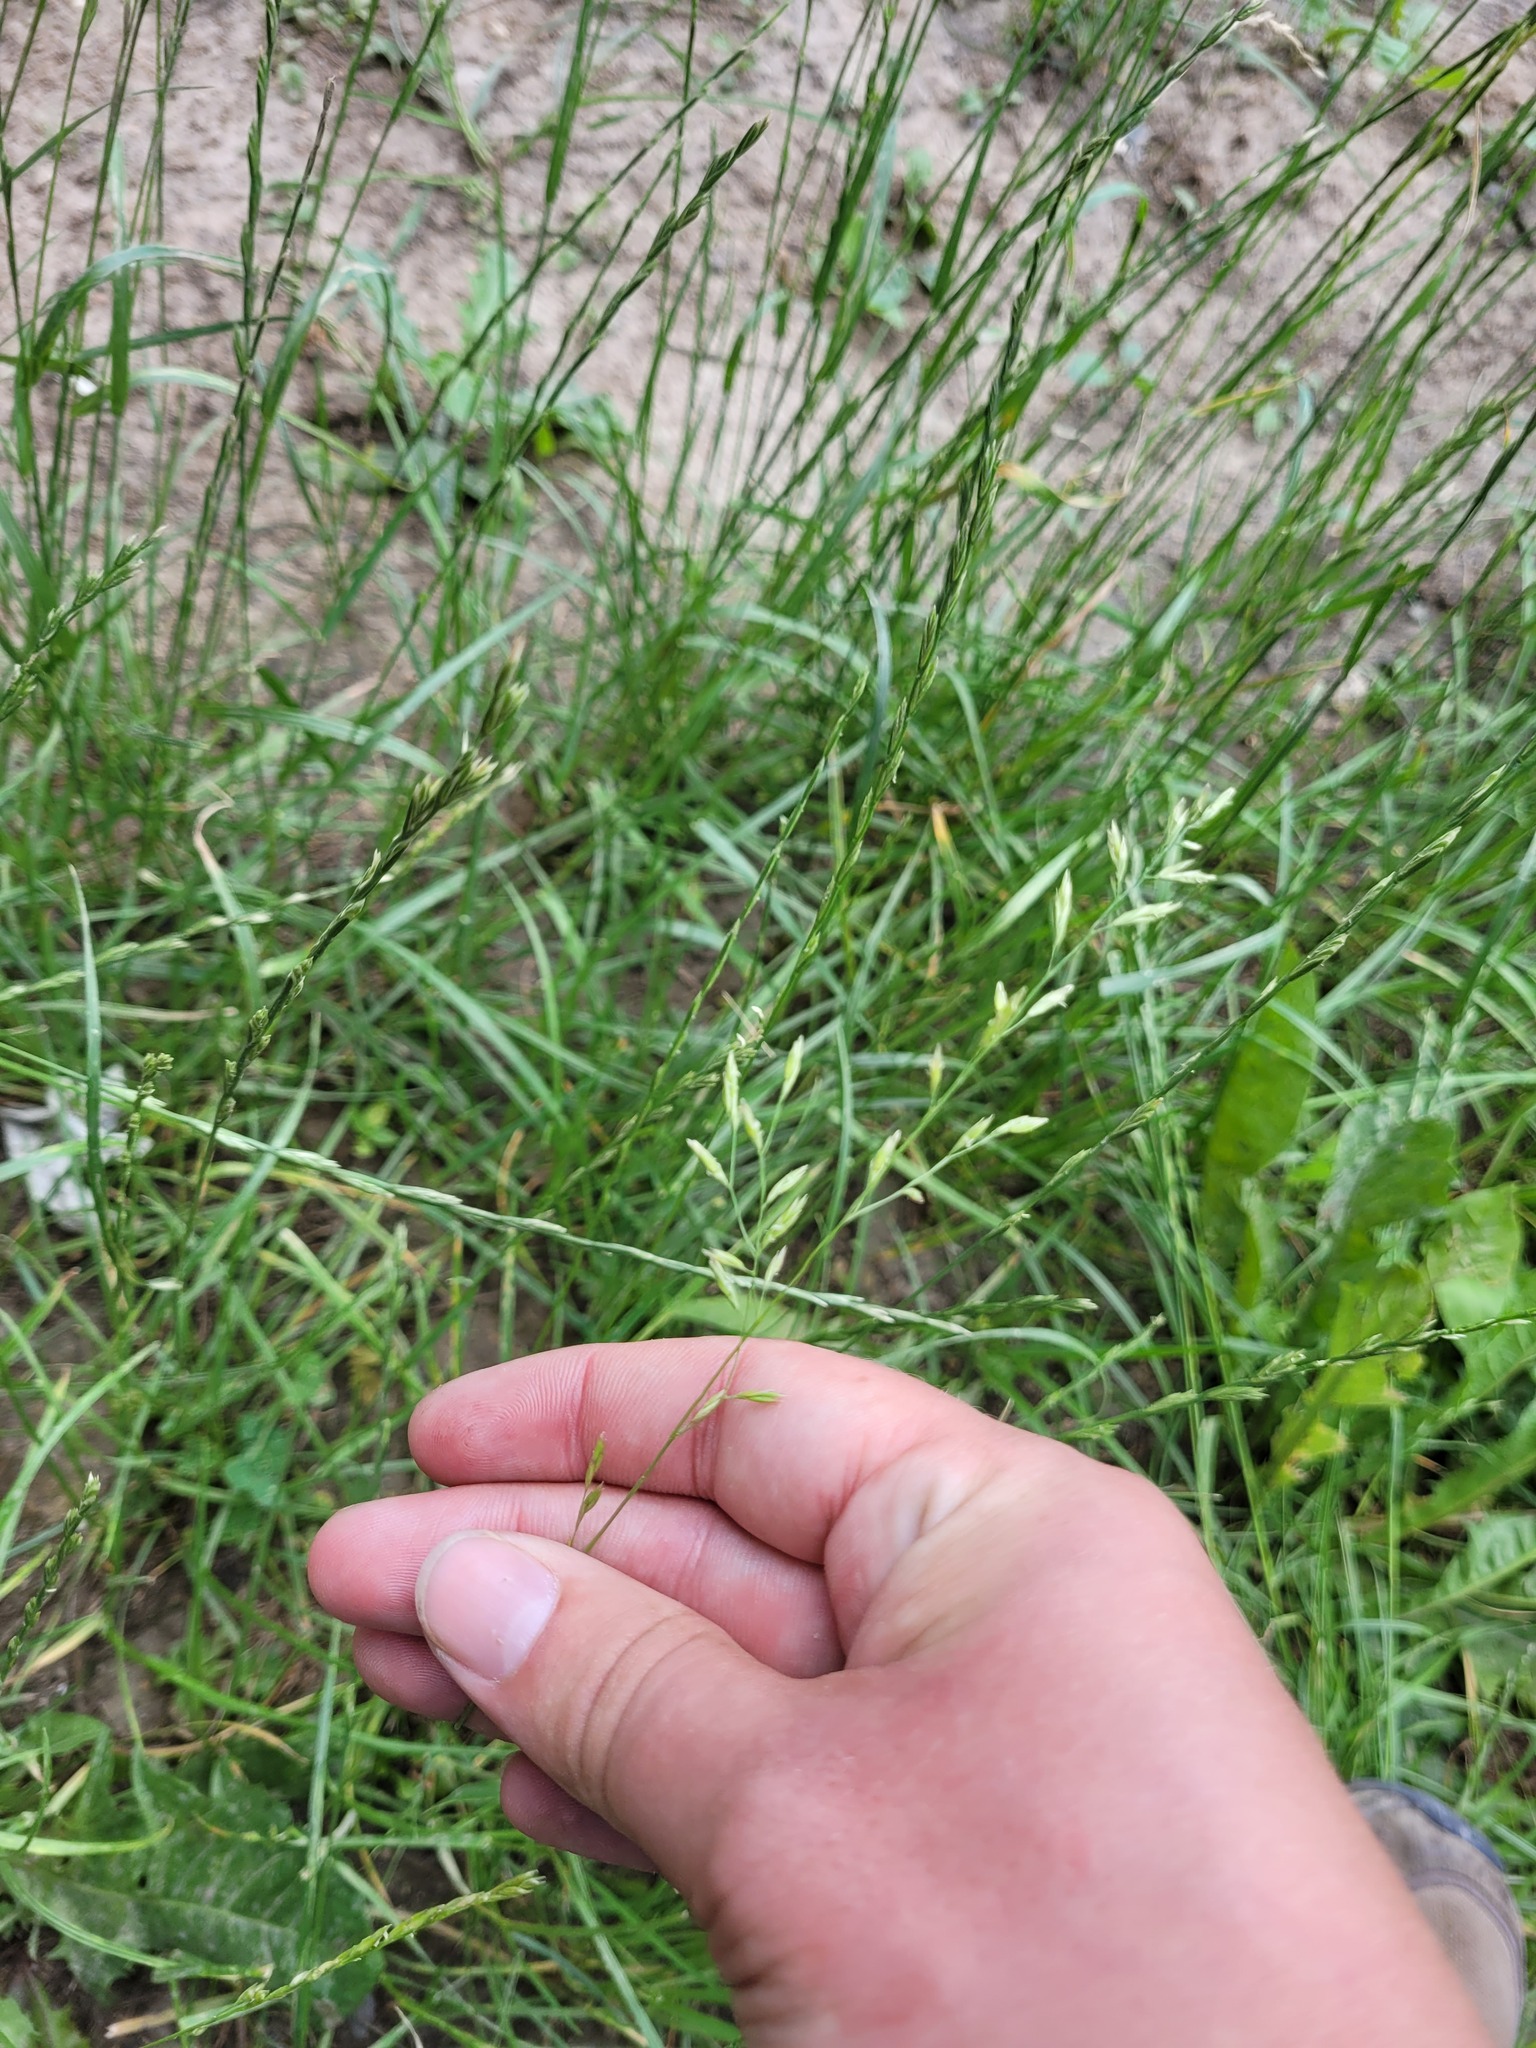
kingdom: Plantae
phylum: Tracheophyta
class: Liliopsida
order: Poales
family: Poaceae
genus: Lolium
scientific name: Lolium pratense
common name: Dover grass
